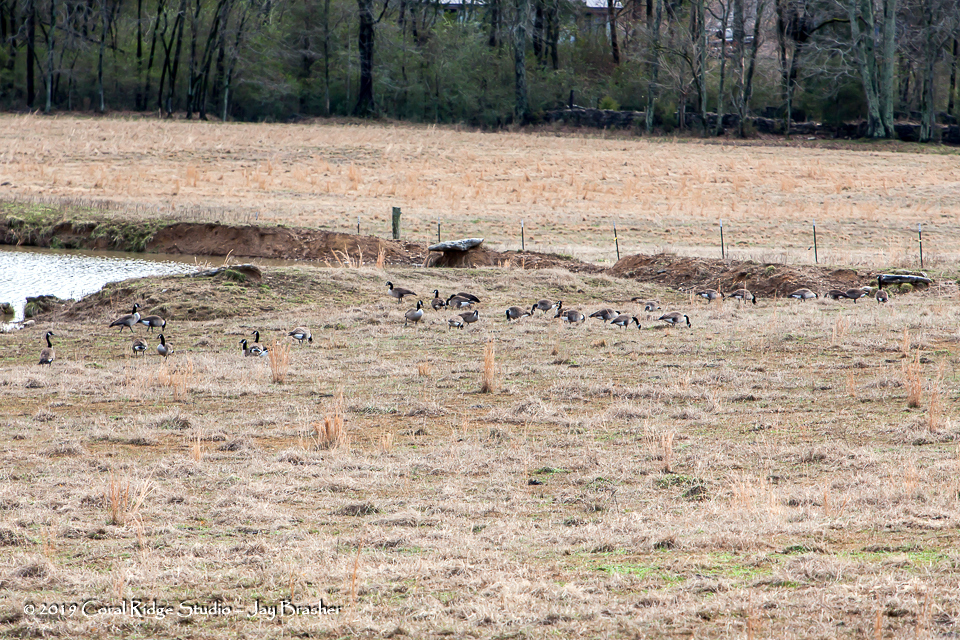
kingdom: Animalia
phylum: Chordata
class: Aves
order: Anseriformes
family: Anatidae
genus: Branta
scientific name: Branta canadensis
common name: Canada goose
